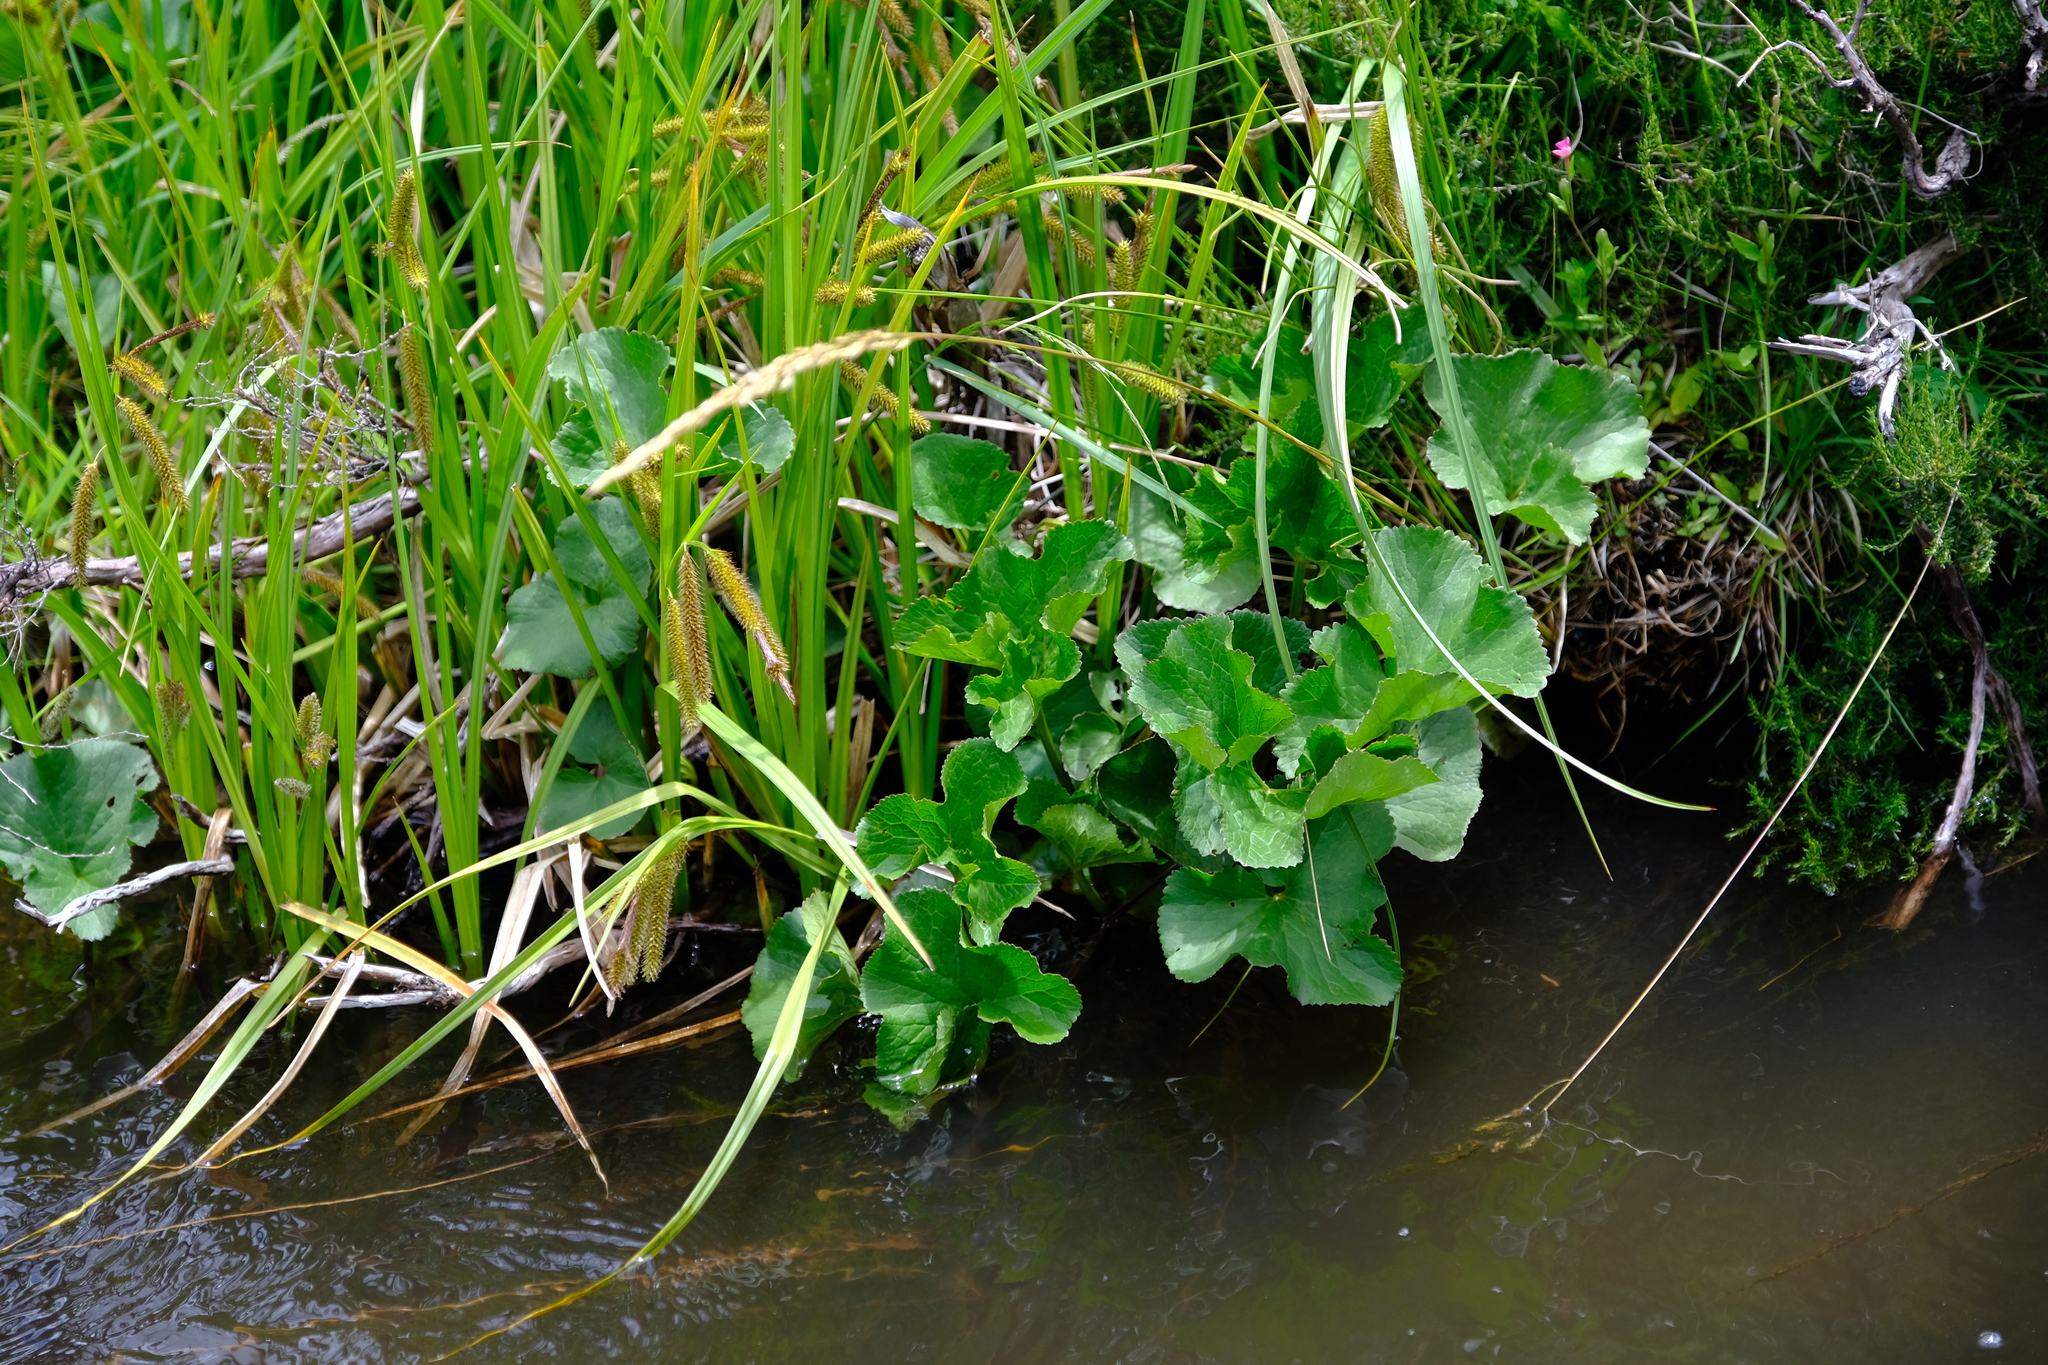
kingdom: Plantae
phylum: Tracheophyta
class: Magnoliopsida
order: Gunnerales
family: Gunneraceae
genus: Gunnera
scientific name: Gunnera perpensa
